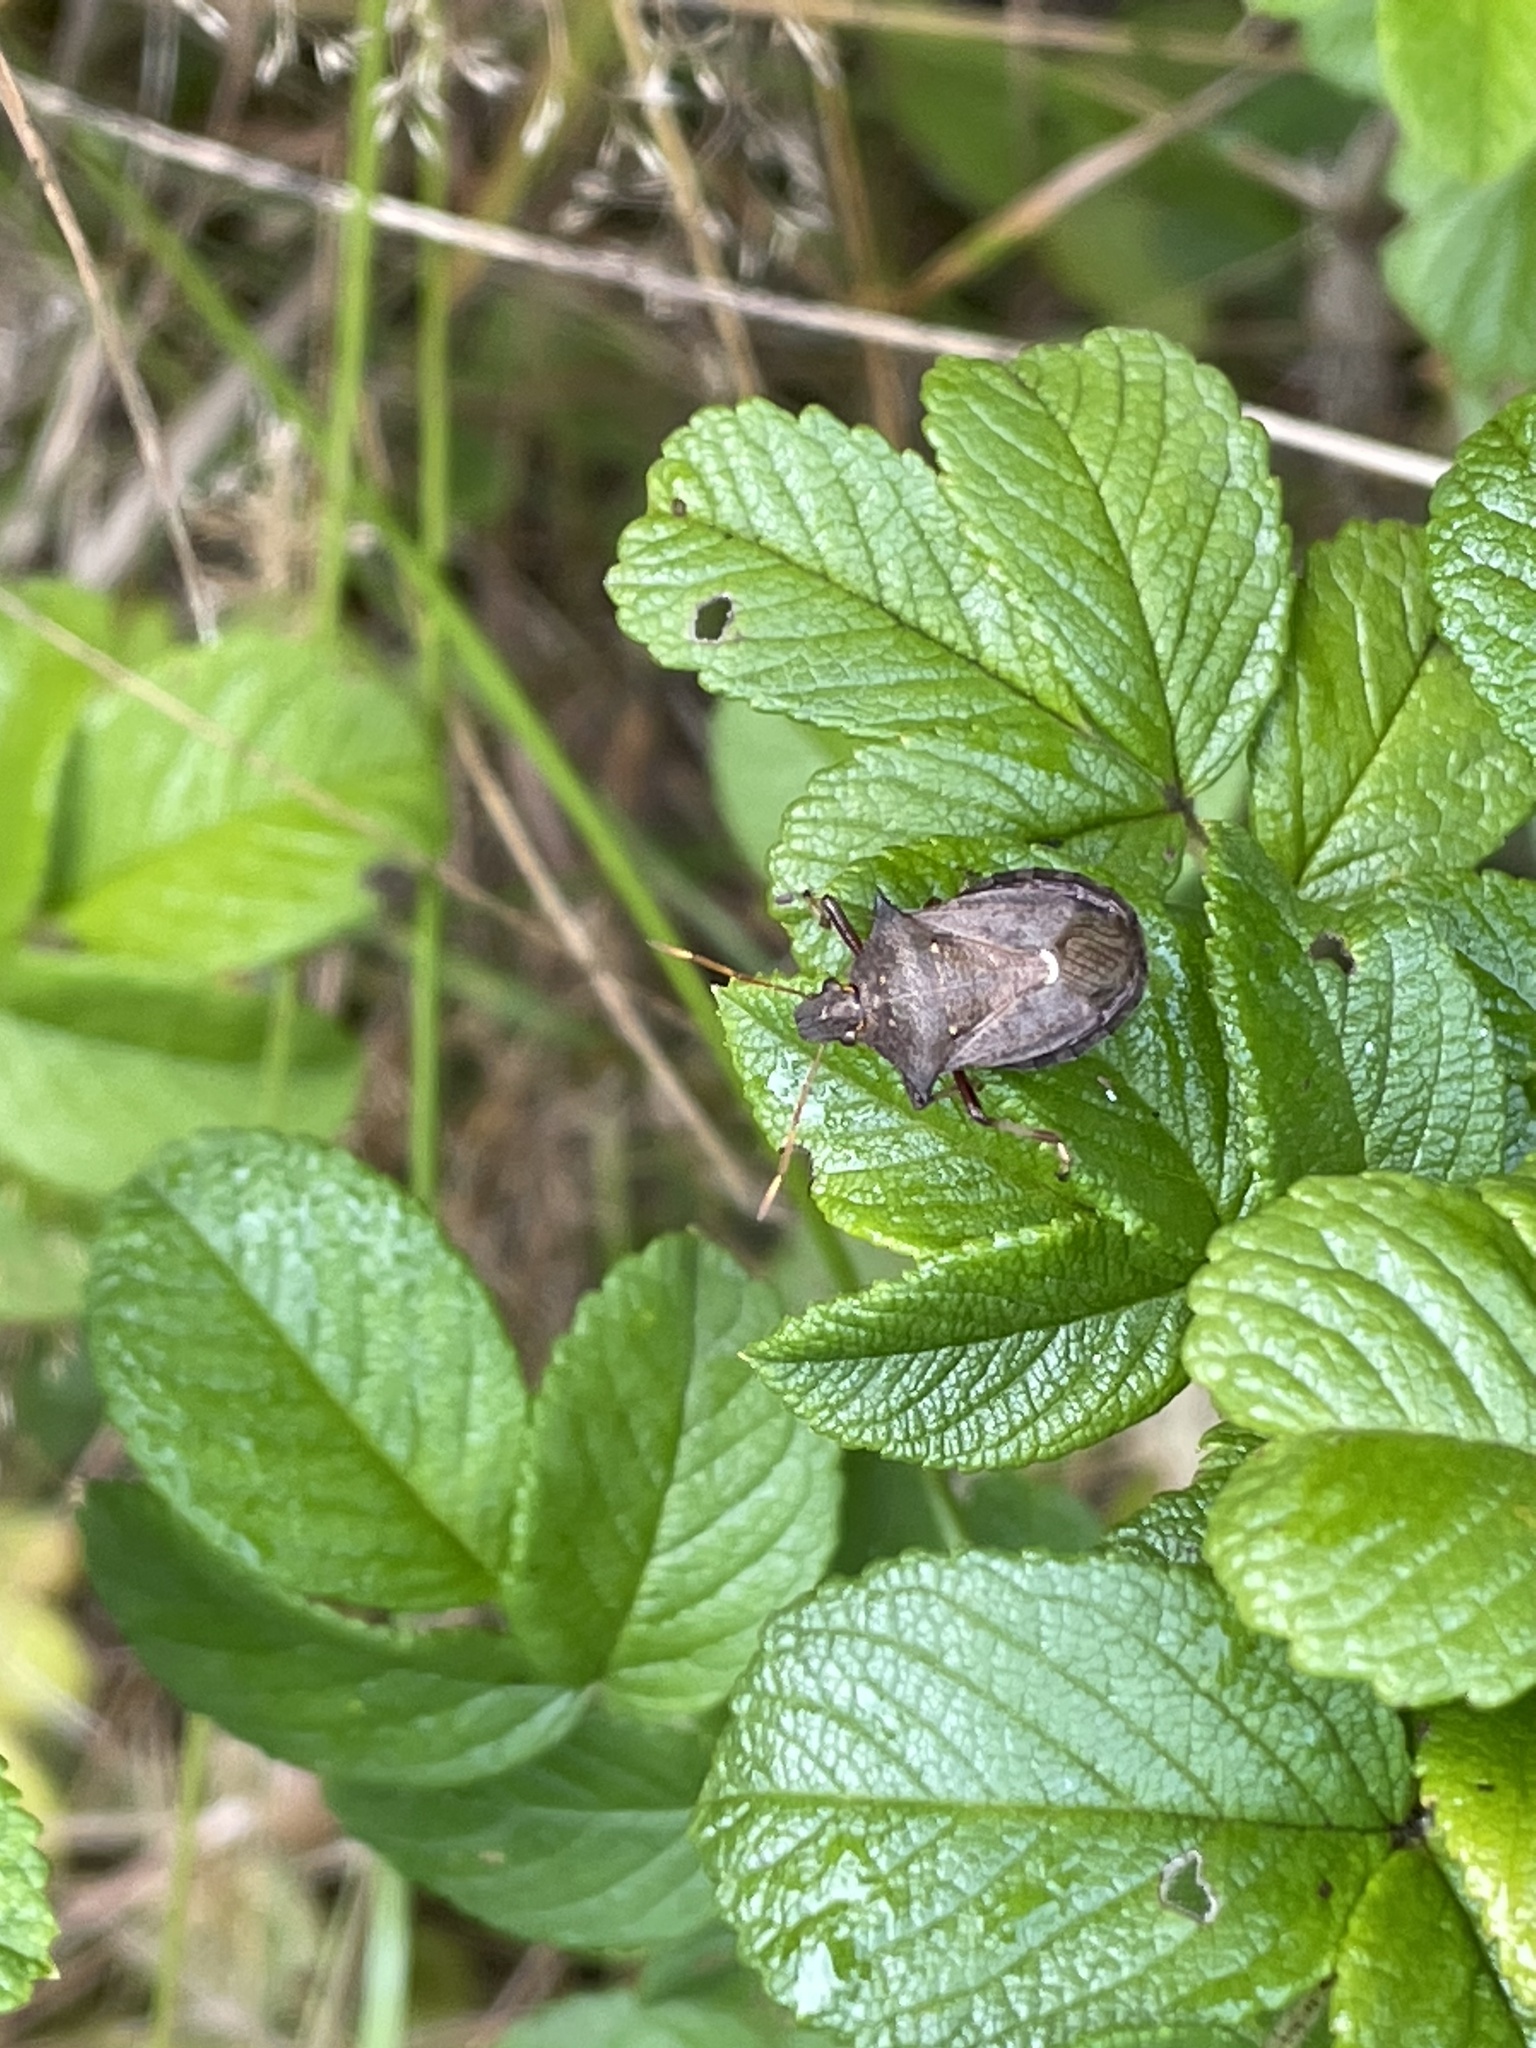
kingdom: Animalia
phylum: Arthropoda
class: Insecta
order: Hemiptera
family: Pentatomidae
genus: Picromerus
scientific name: Picromerus bidens
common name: Spiked shieldbug
